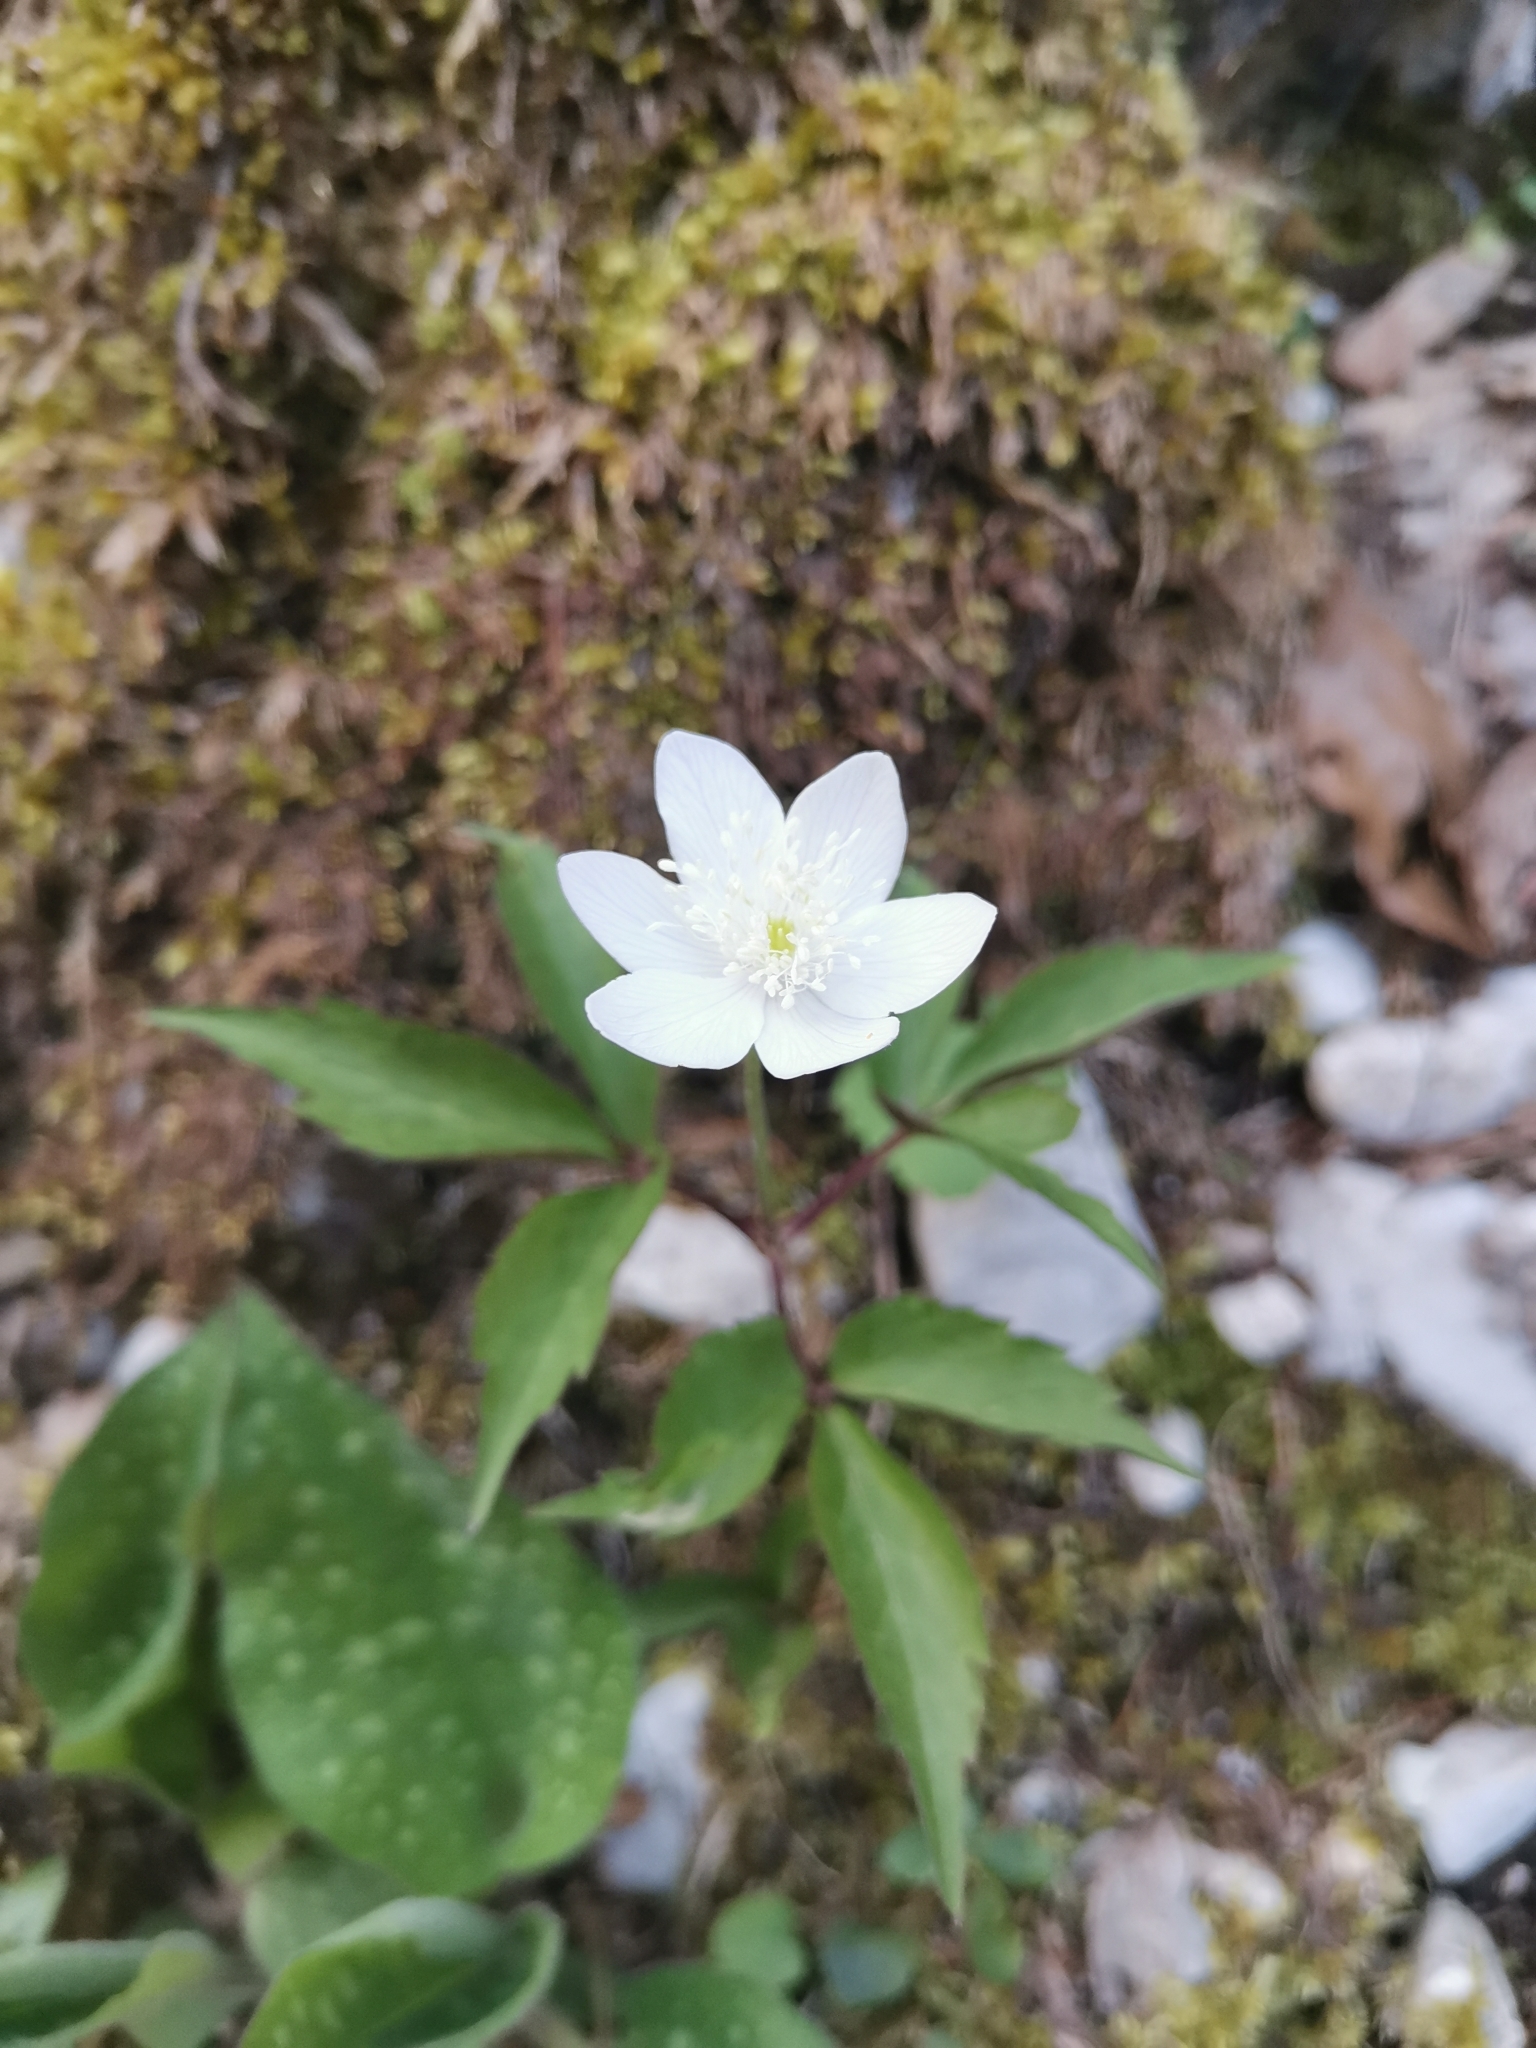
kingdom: Plantae
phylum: Tracheophyta
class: Magnoliopsida
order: Ranunculales
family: Ranunculaceae
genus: Anemone
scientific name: Anemone trifolia
